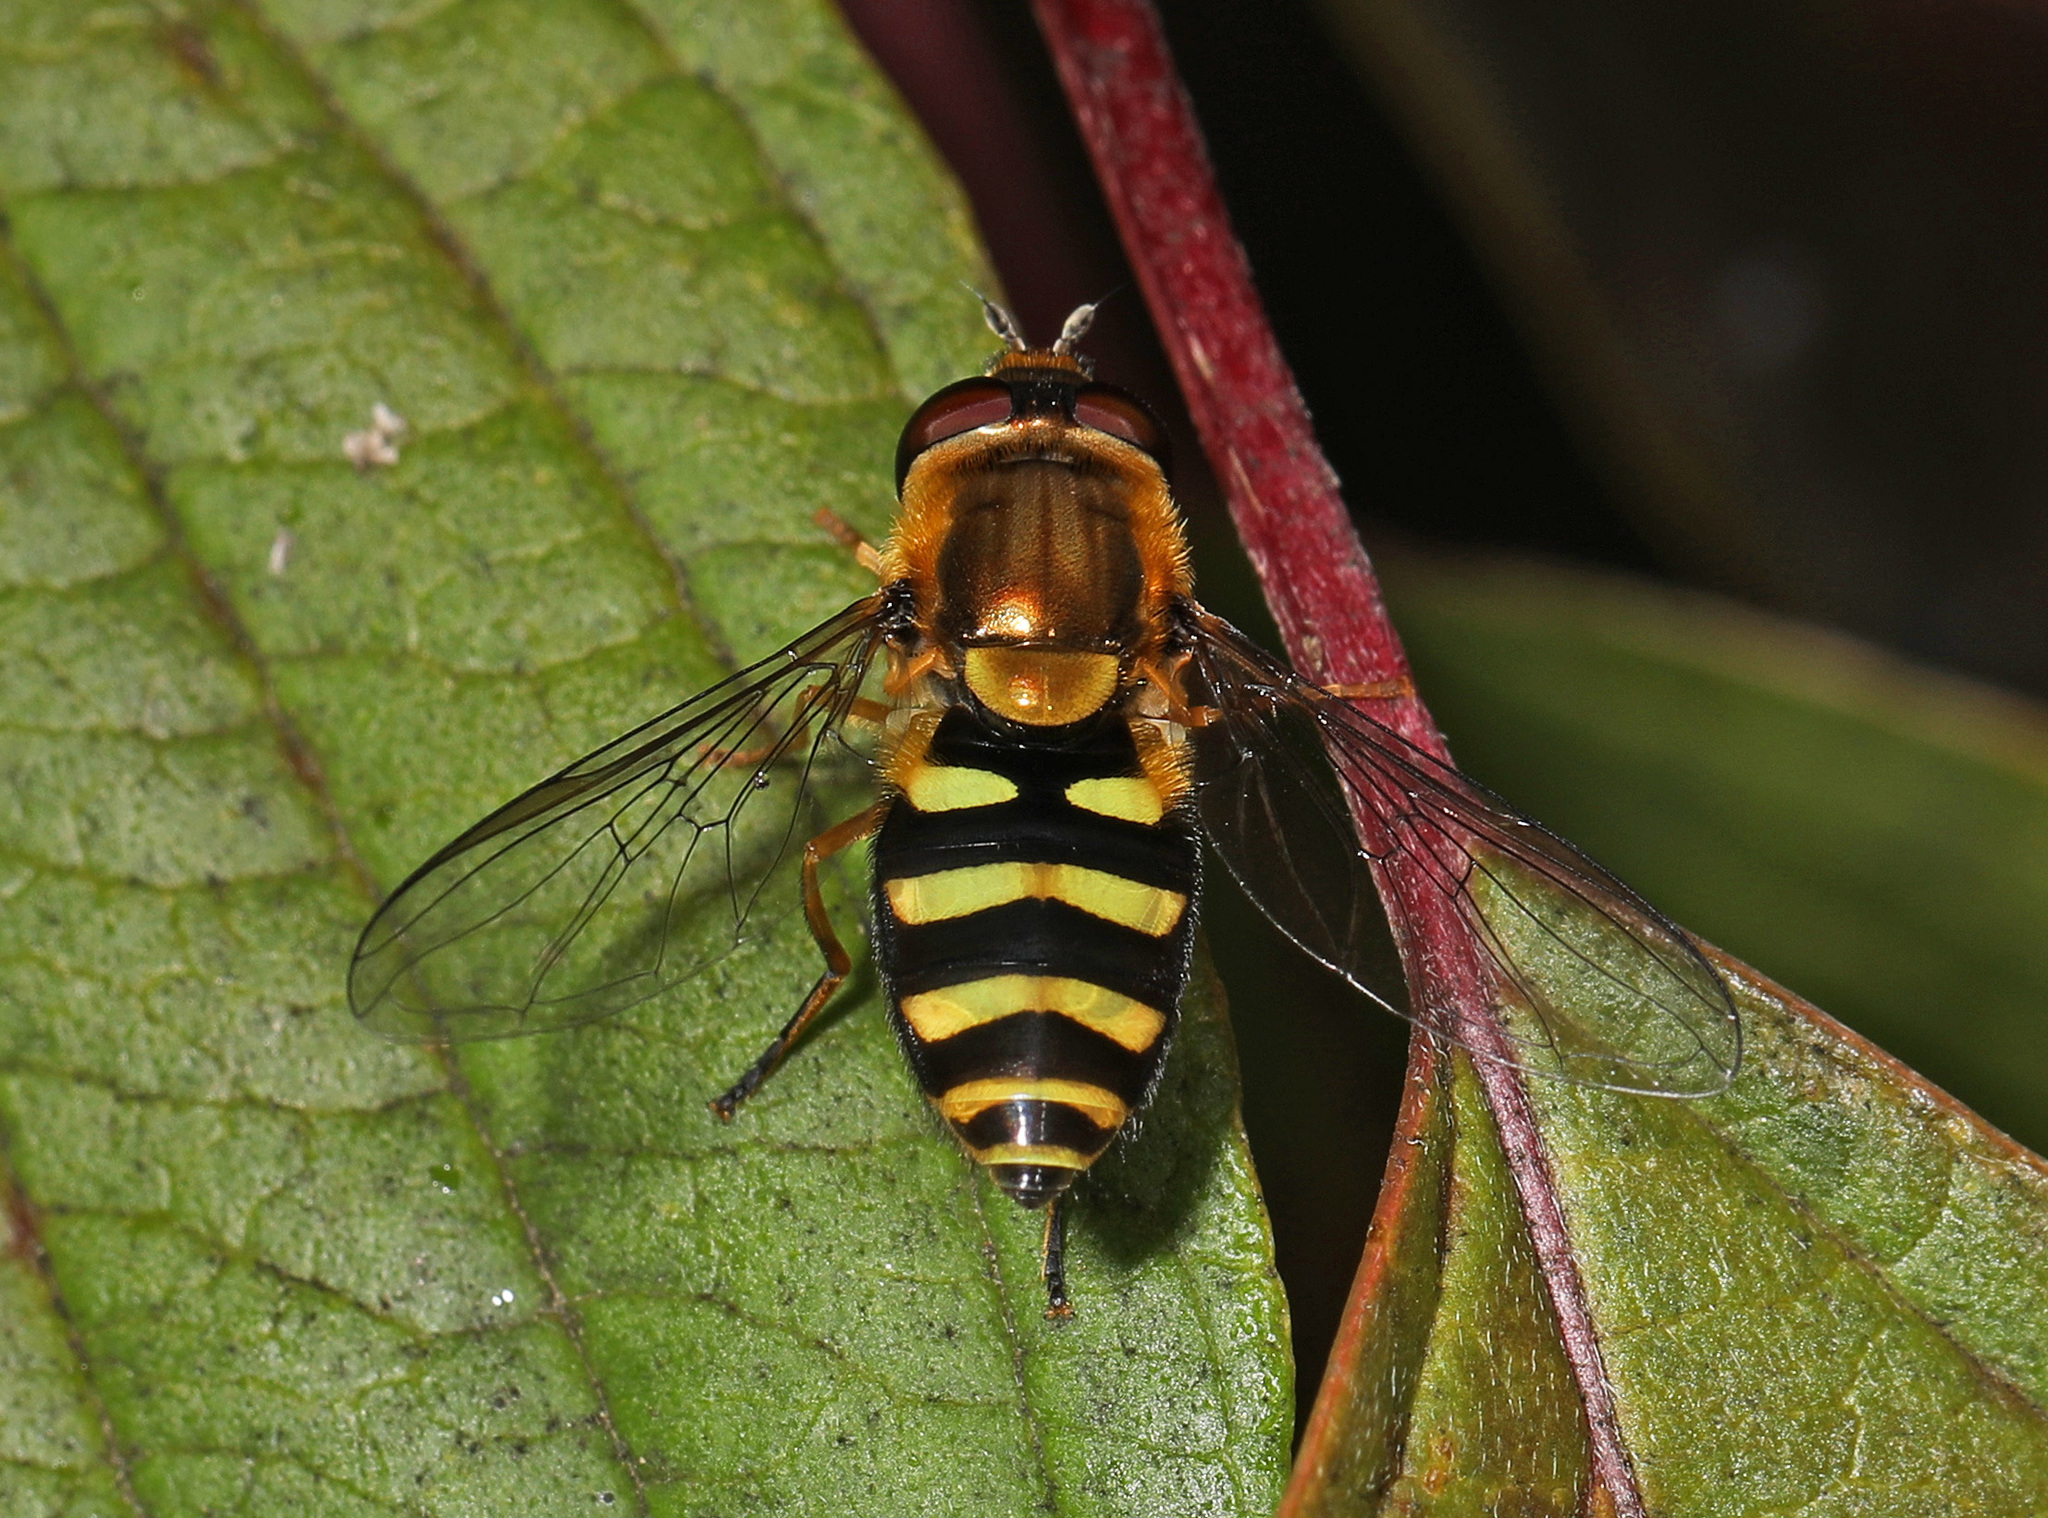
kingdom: Animalia
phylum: Arthropoda
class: Insecta
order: Diptera
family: Syrphidae
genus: Syrphus
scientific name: Syrphus opinator
